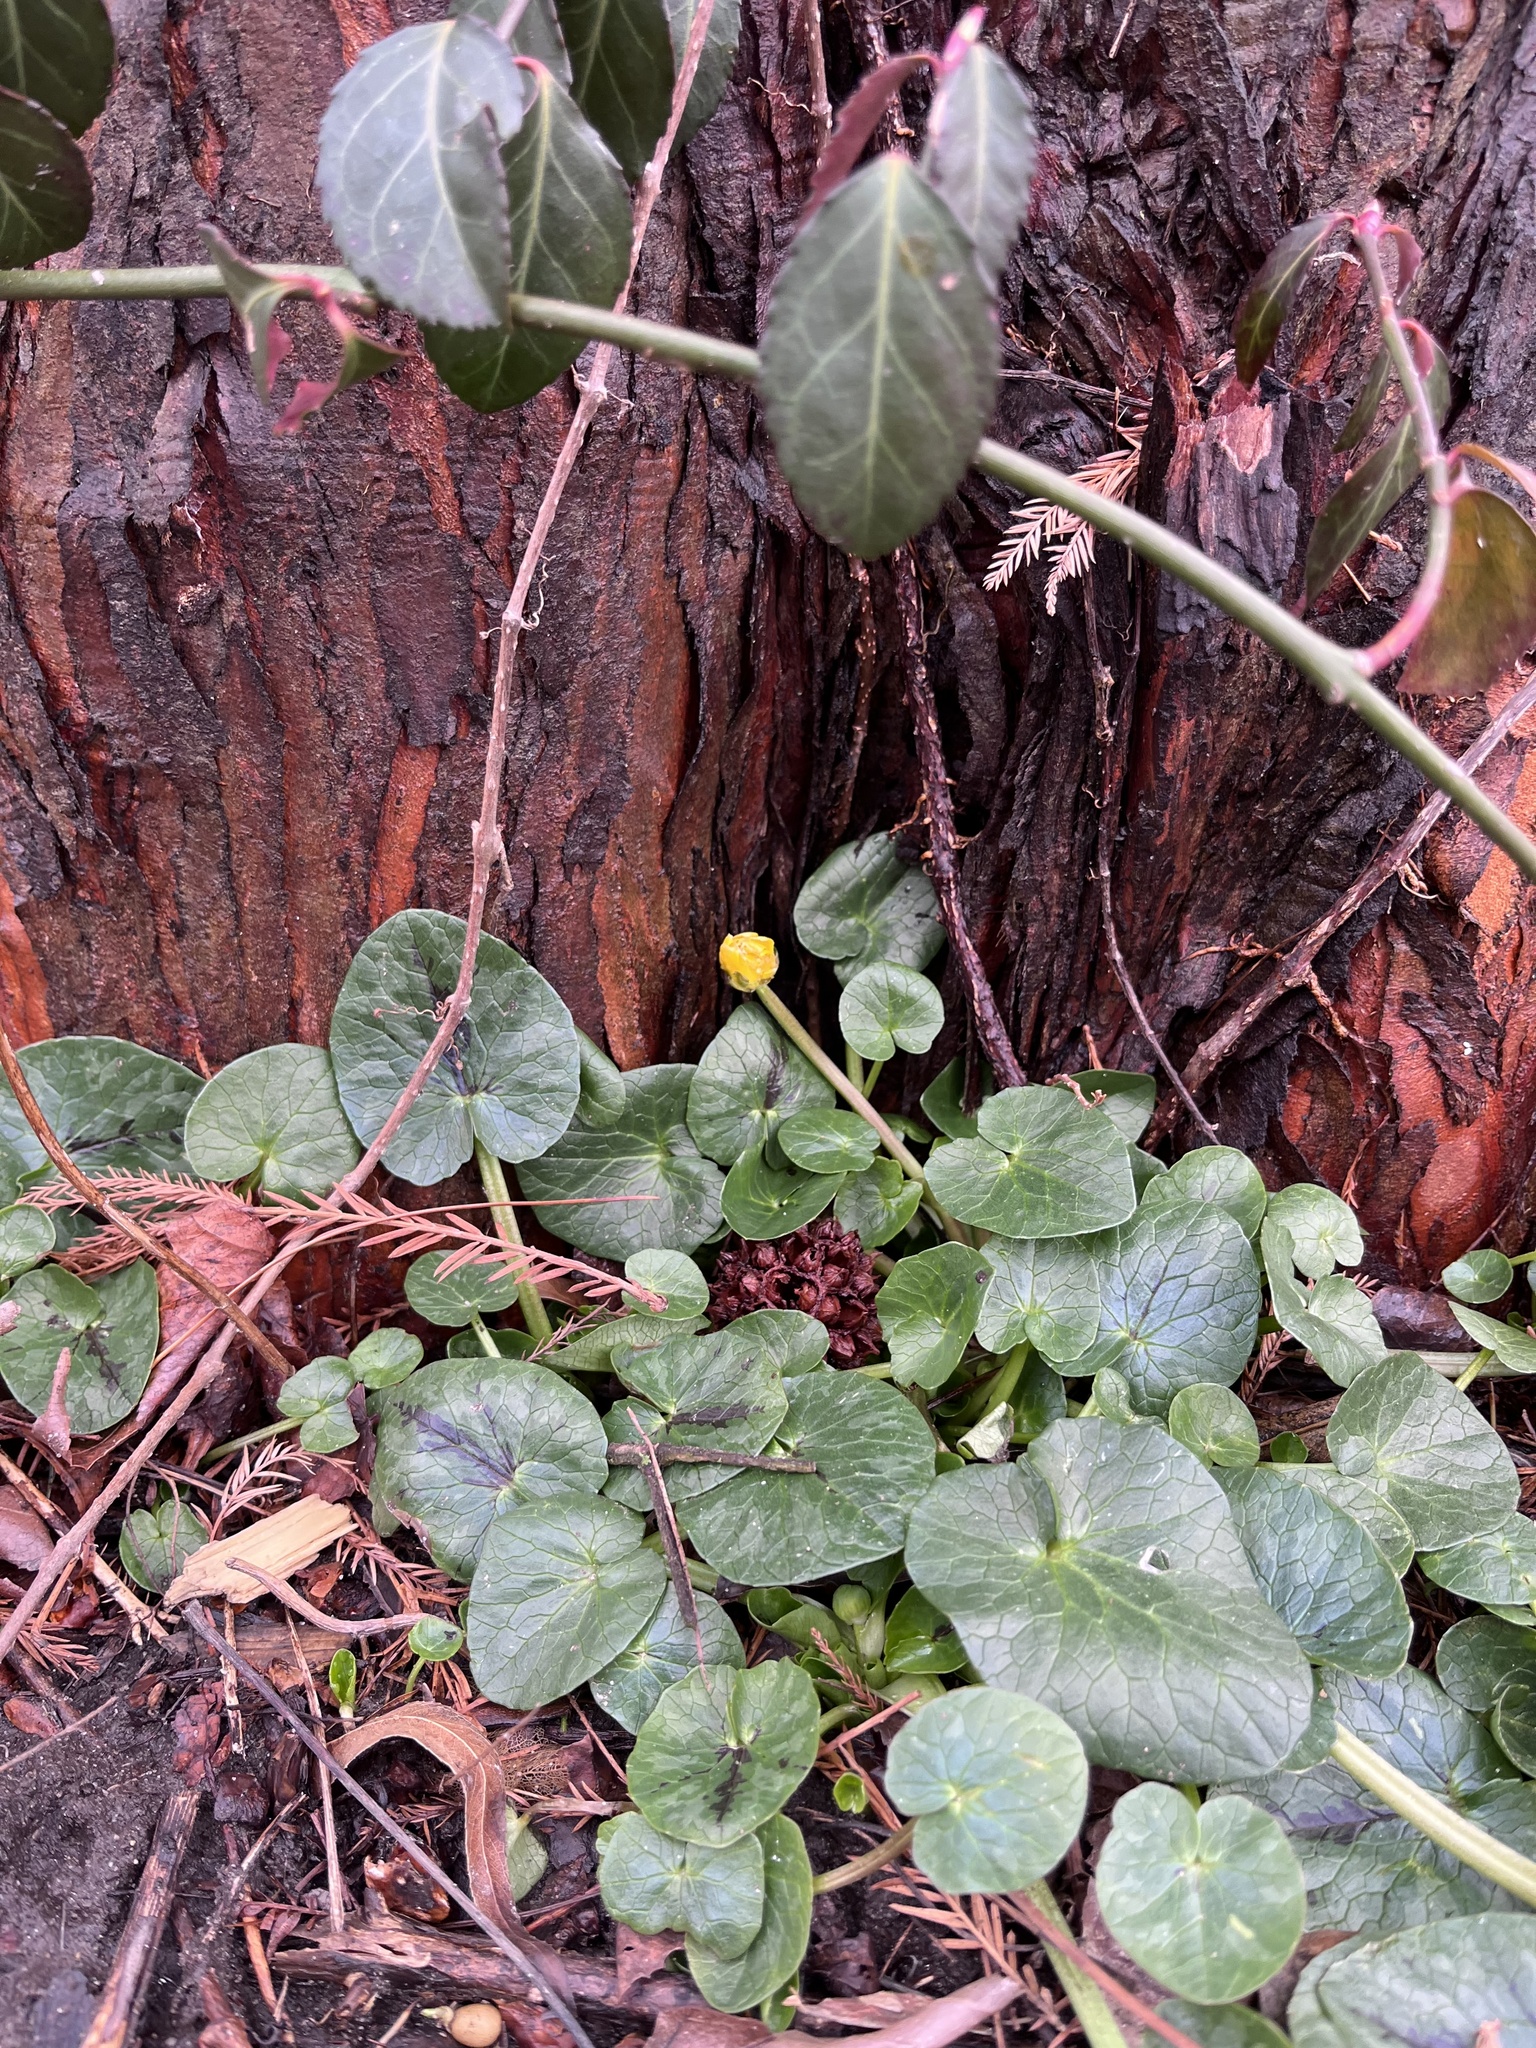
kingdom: Plantae
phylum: Tracheophyta
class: Magnoliopsida
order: Ranunculales
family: Ranunculaceae
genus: Ficaria
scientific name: Ficaria verna
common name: Lesser celandine
